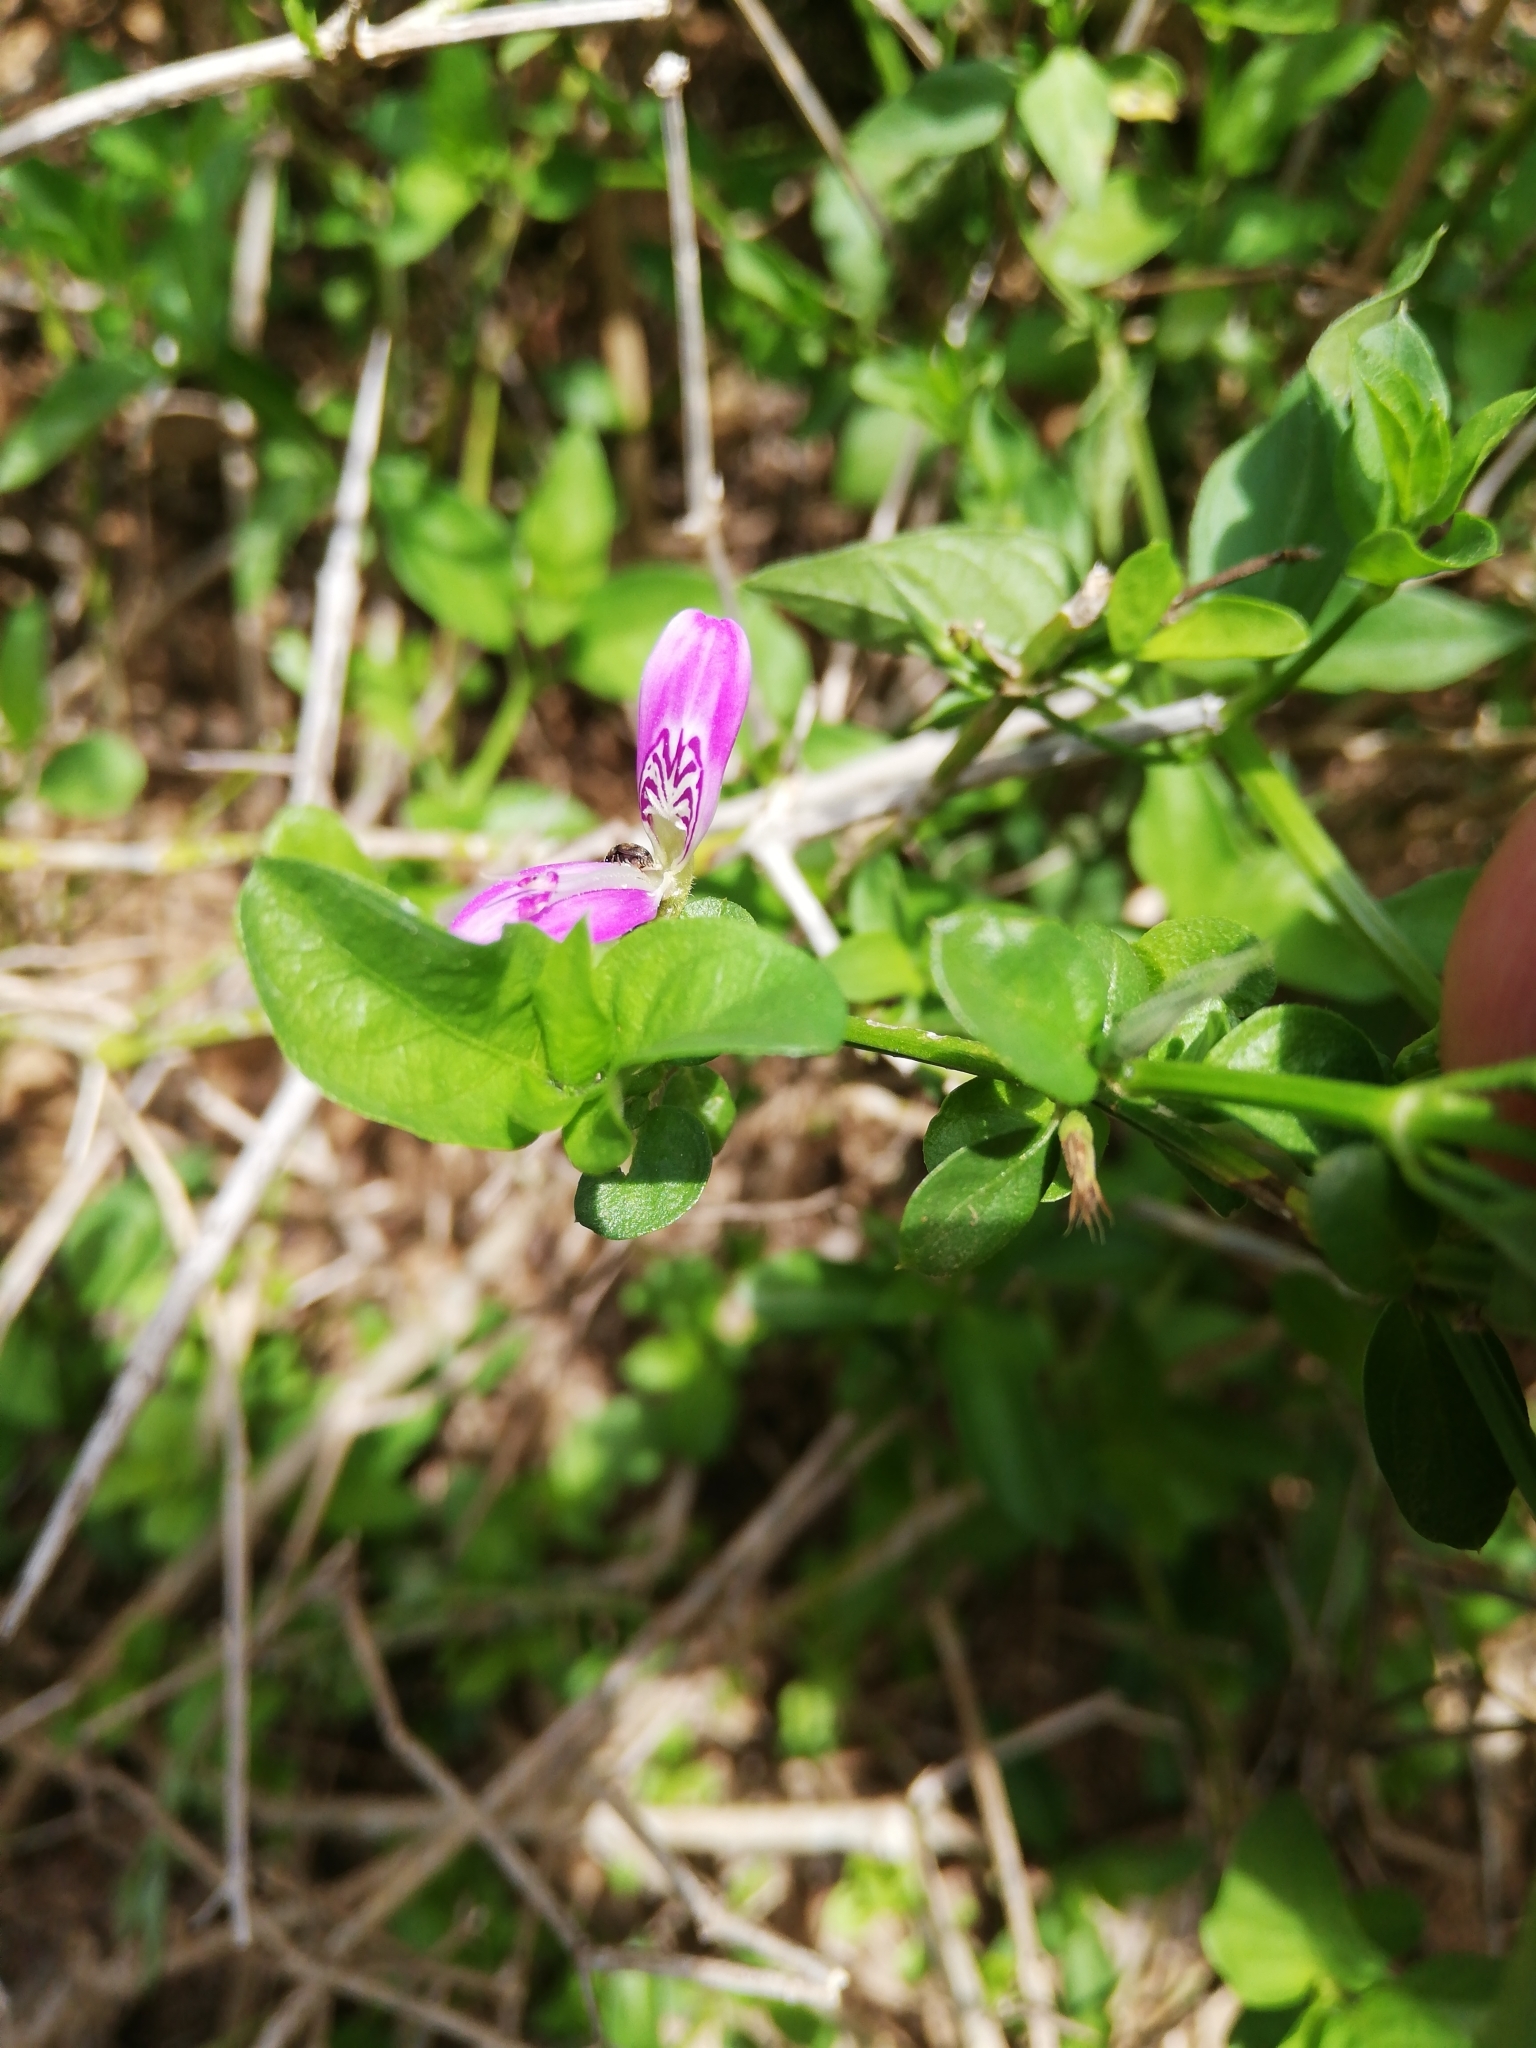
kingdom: Plantae
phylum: Tracheophyta
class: Magnoliopsida
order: Lamiales
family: Acanthaceae
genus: Dicliptera
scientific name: Dicliptera cernua
